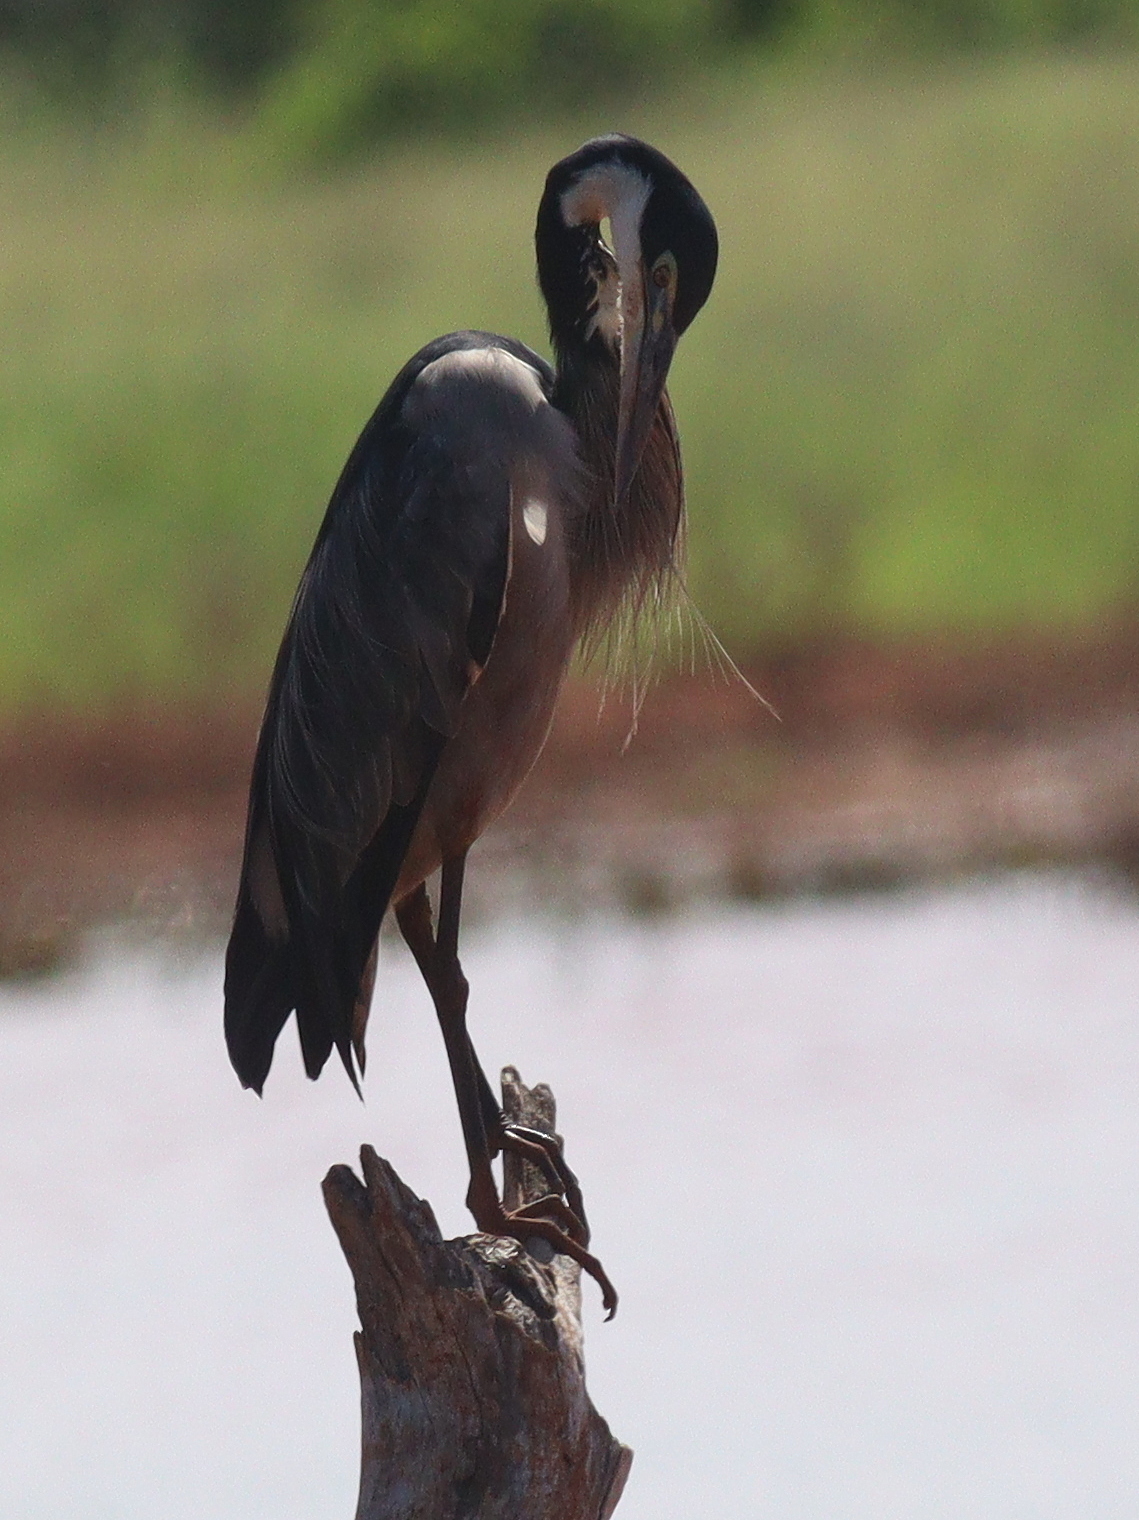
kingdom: Animalia
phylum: Chordata
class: Aves
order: Pelecaniformes
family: Ardeidae
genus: Ardea
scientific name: Ardea melanocephala
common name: Black-headed heron
